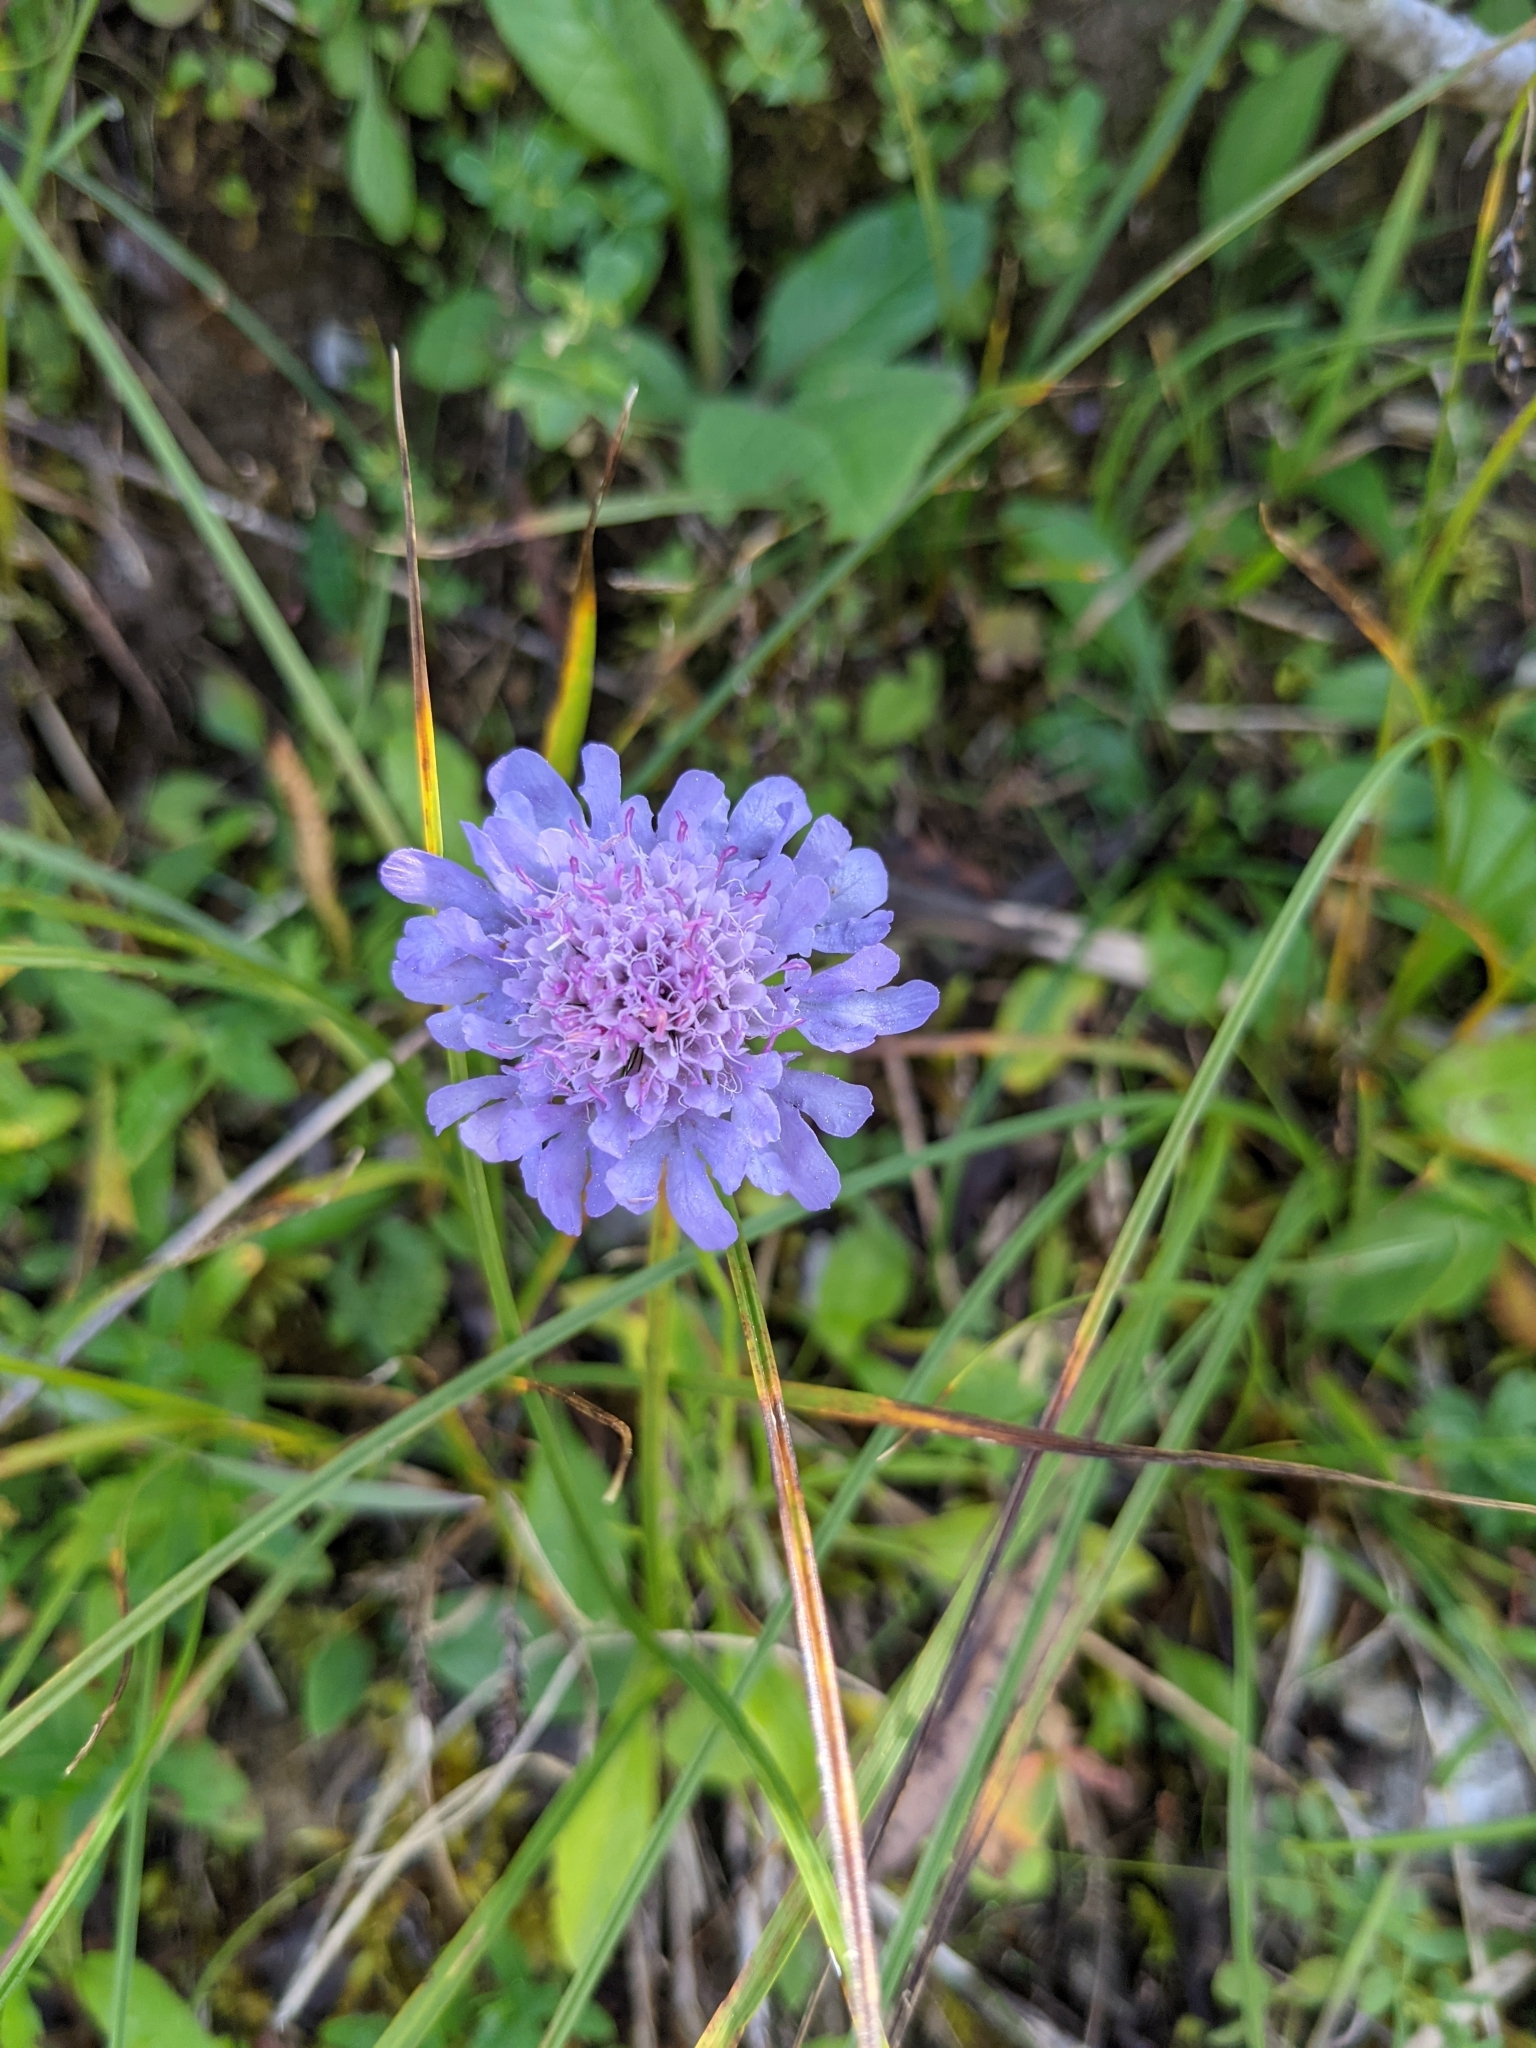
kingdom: Plantae
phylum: Tracheophyta
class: Magnoliopsida
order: Dipsacales
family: Caprifoliaceae
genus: Scabiosa
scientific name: Scabiosa lucida
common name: Shining scabious
